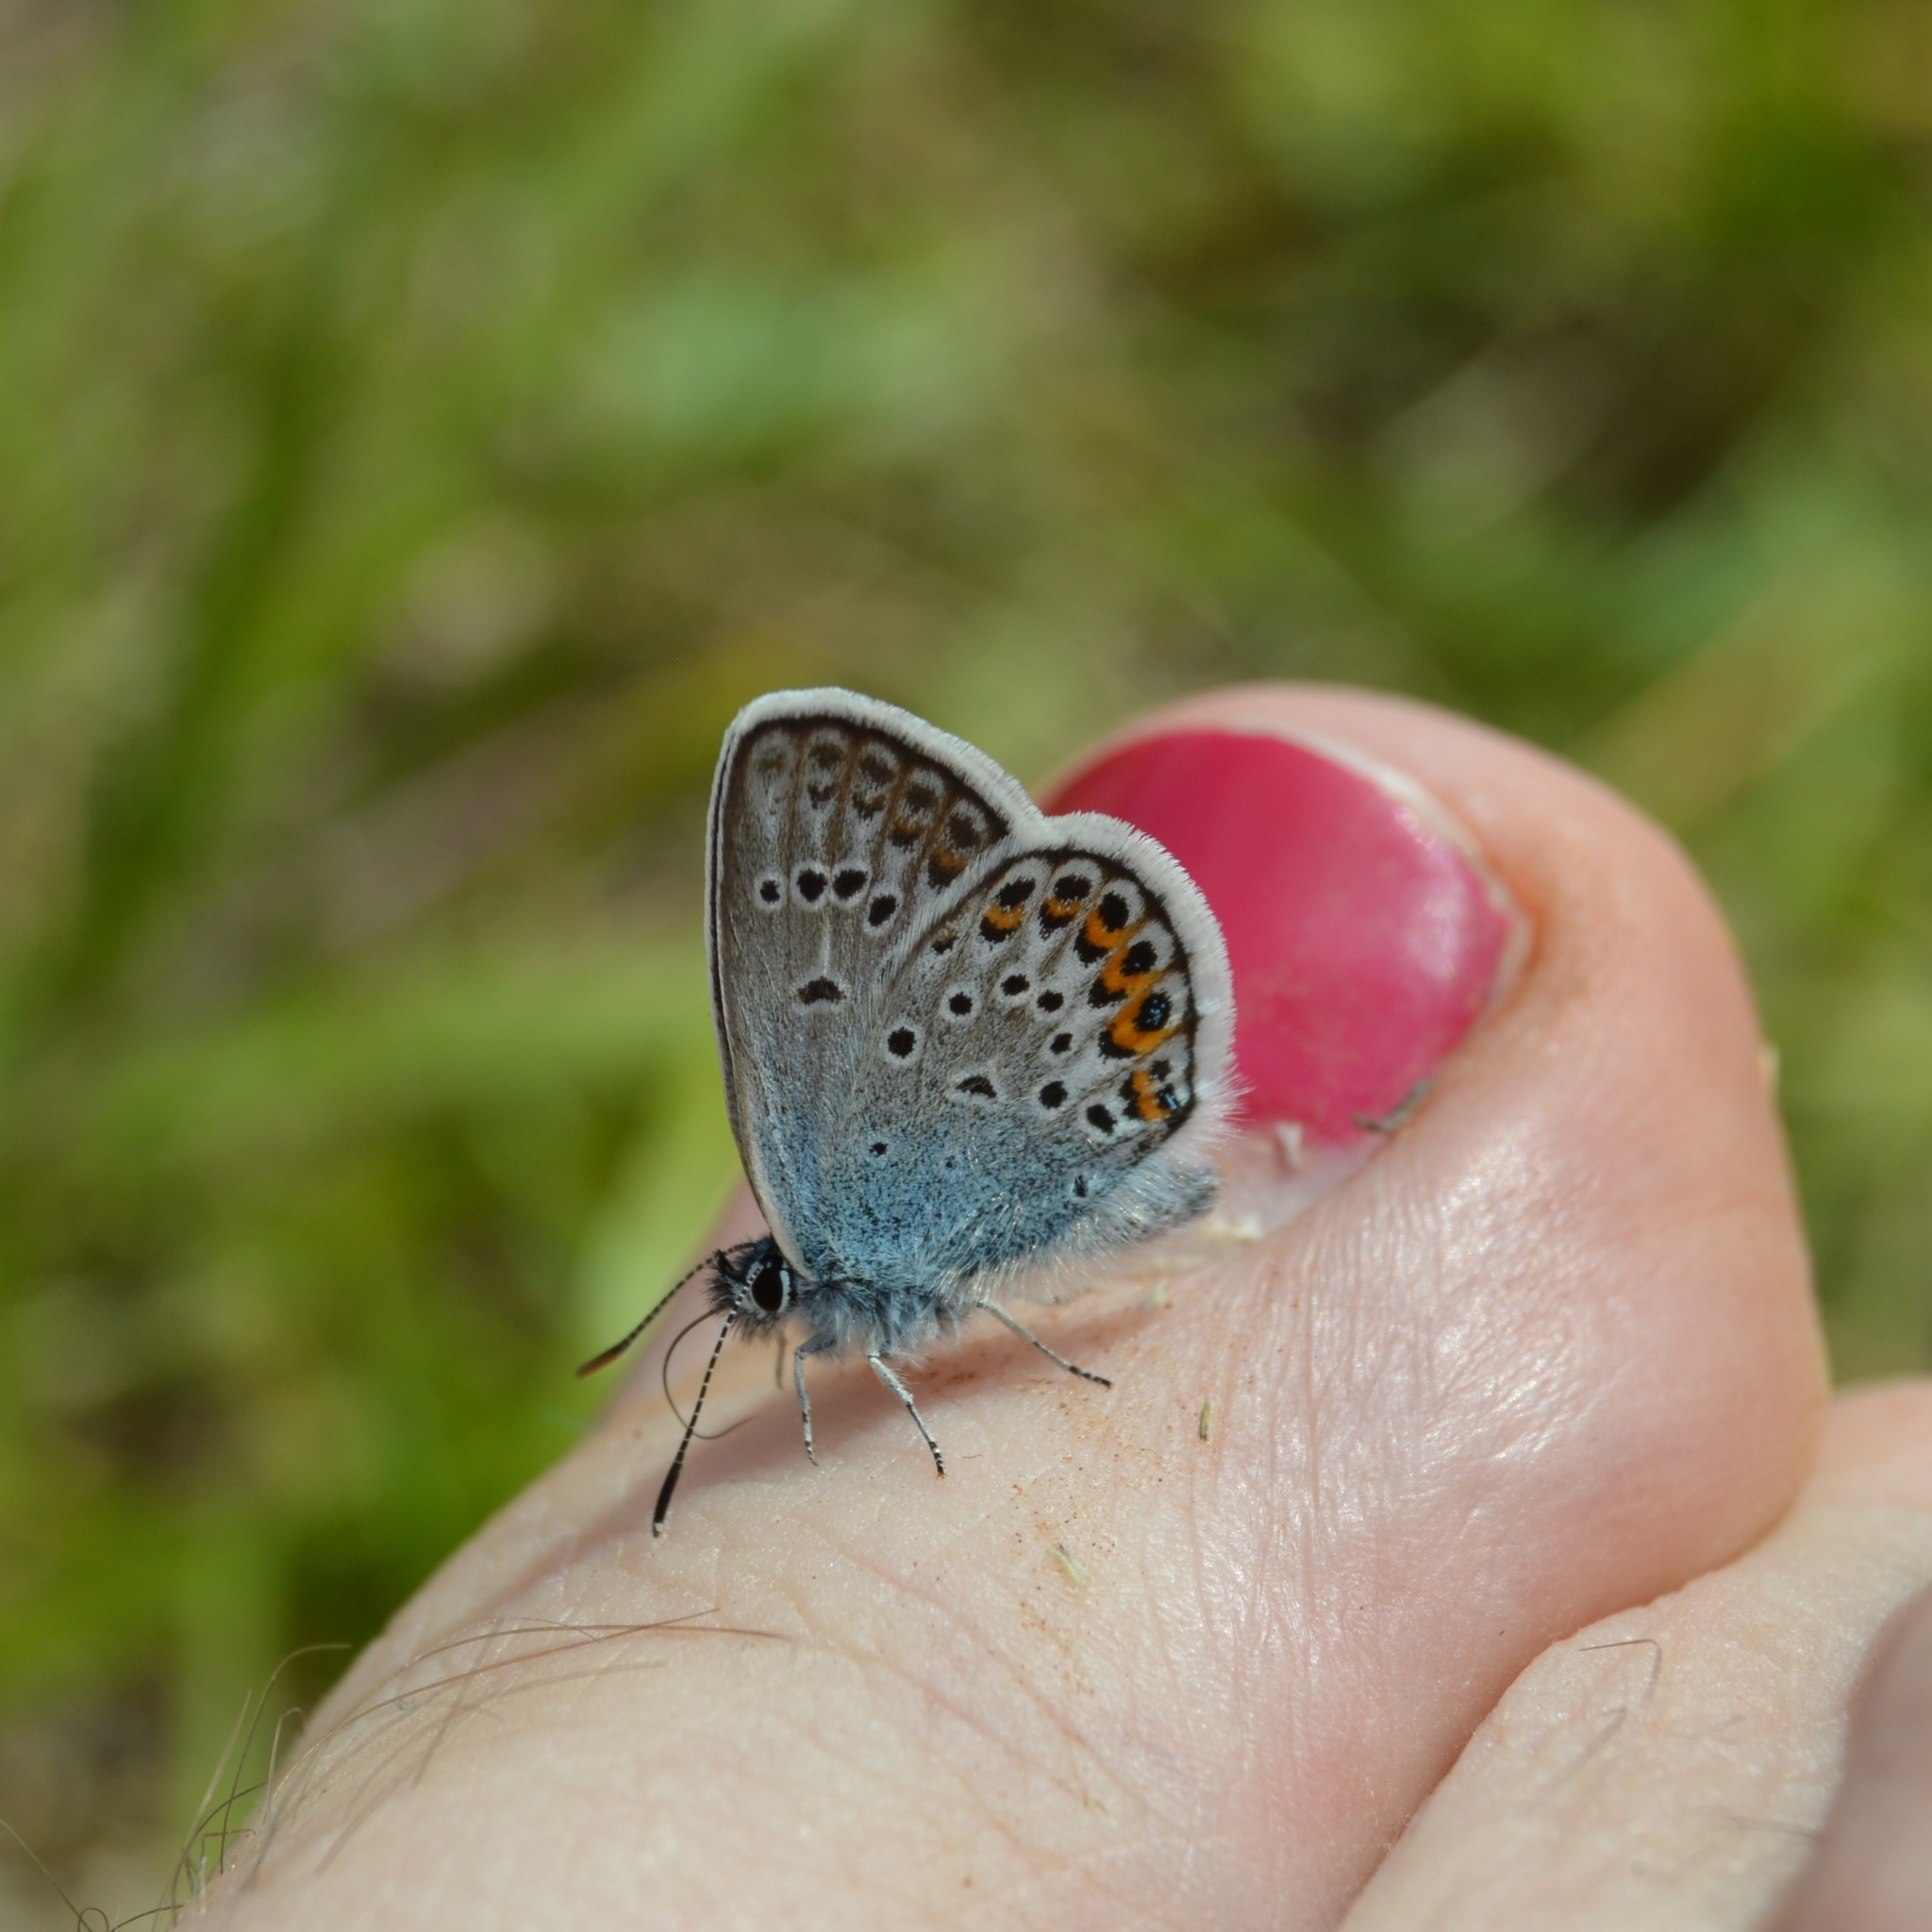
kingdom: Animalia
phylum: Arthropoda
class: Insecta
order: Lepidoptera
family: Lycaenidae
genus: Plebejus
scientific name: Plebejus argus
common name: Silver-studded blue
